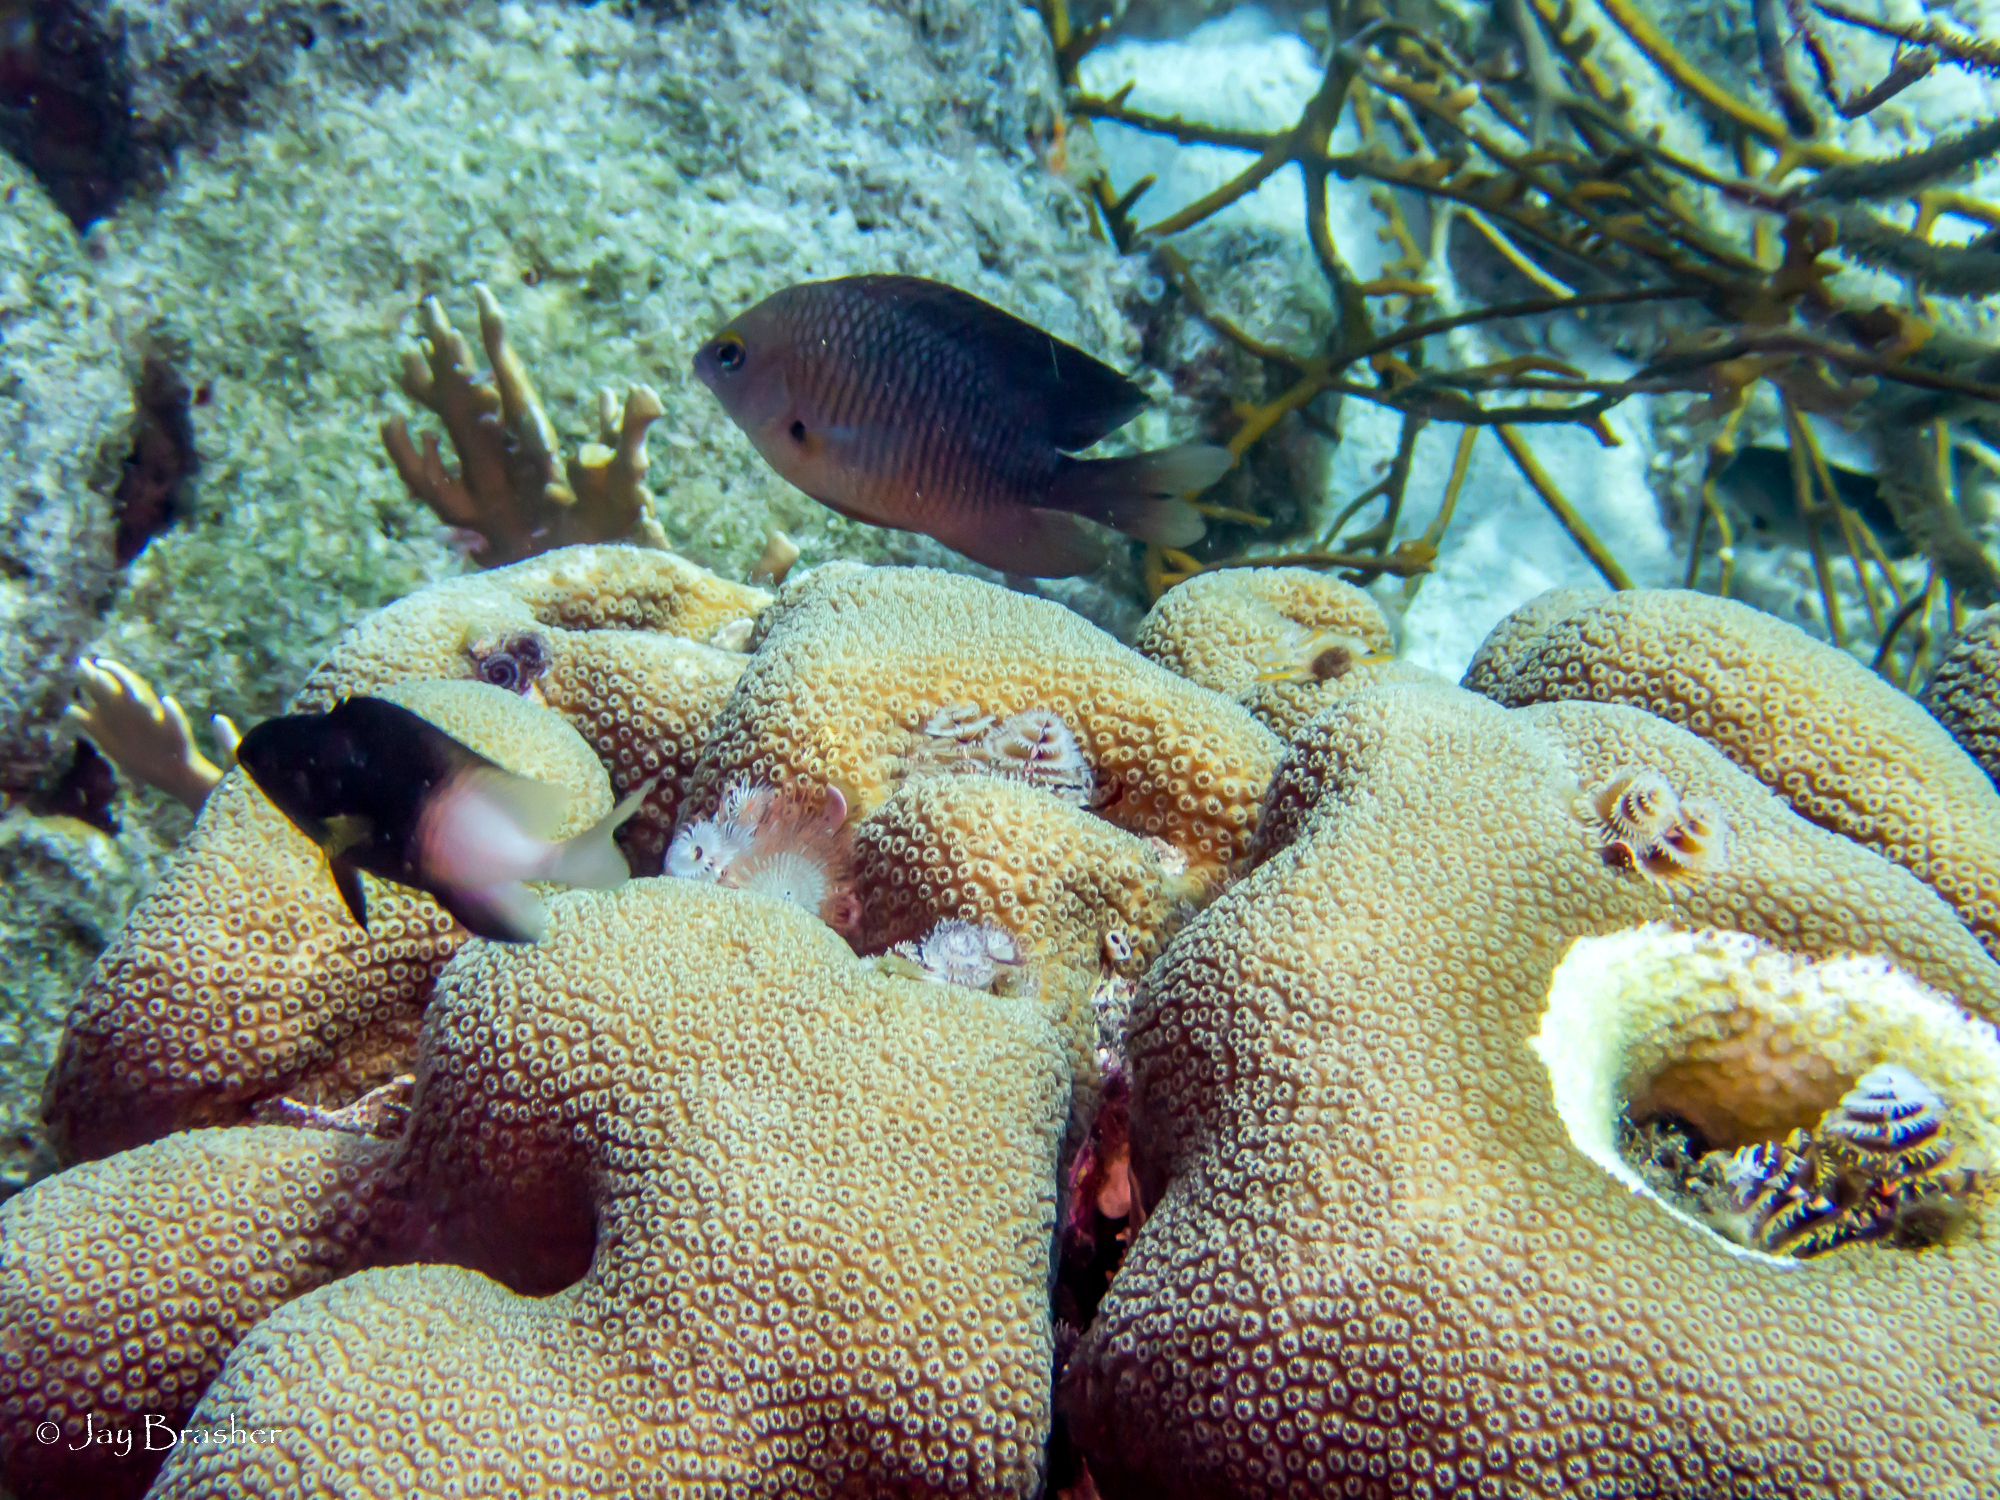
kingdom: Animalia
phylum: Chordata
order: Perciformes
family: Pomacentridae
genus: Stegastes
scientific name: Stegastes partitus
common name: Bicolor damselfish
